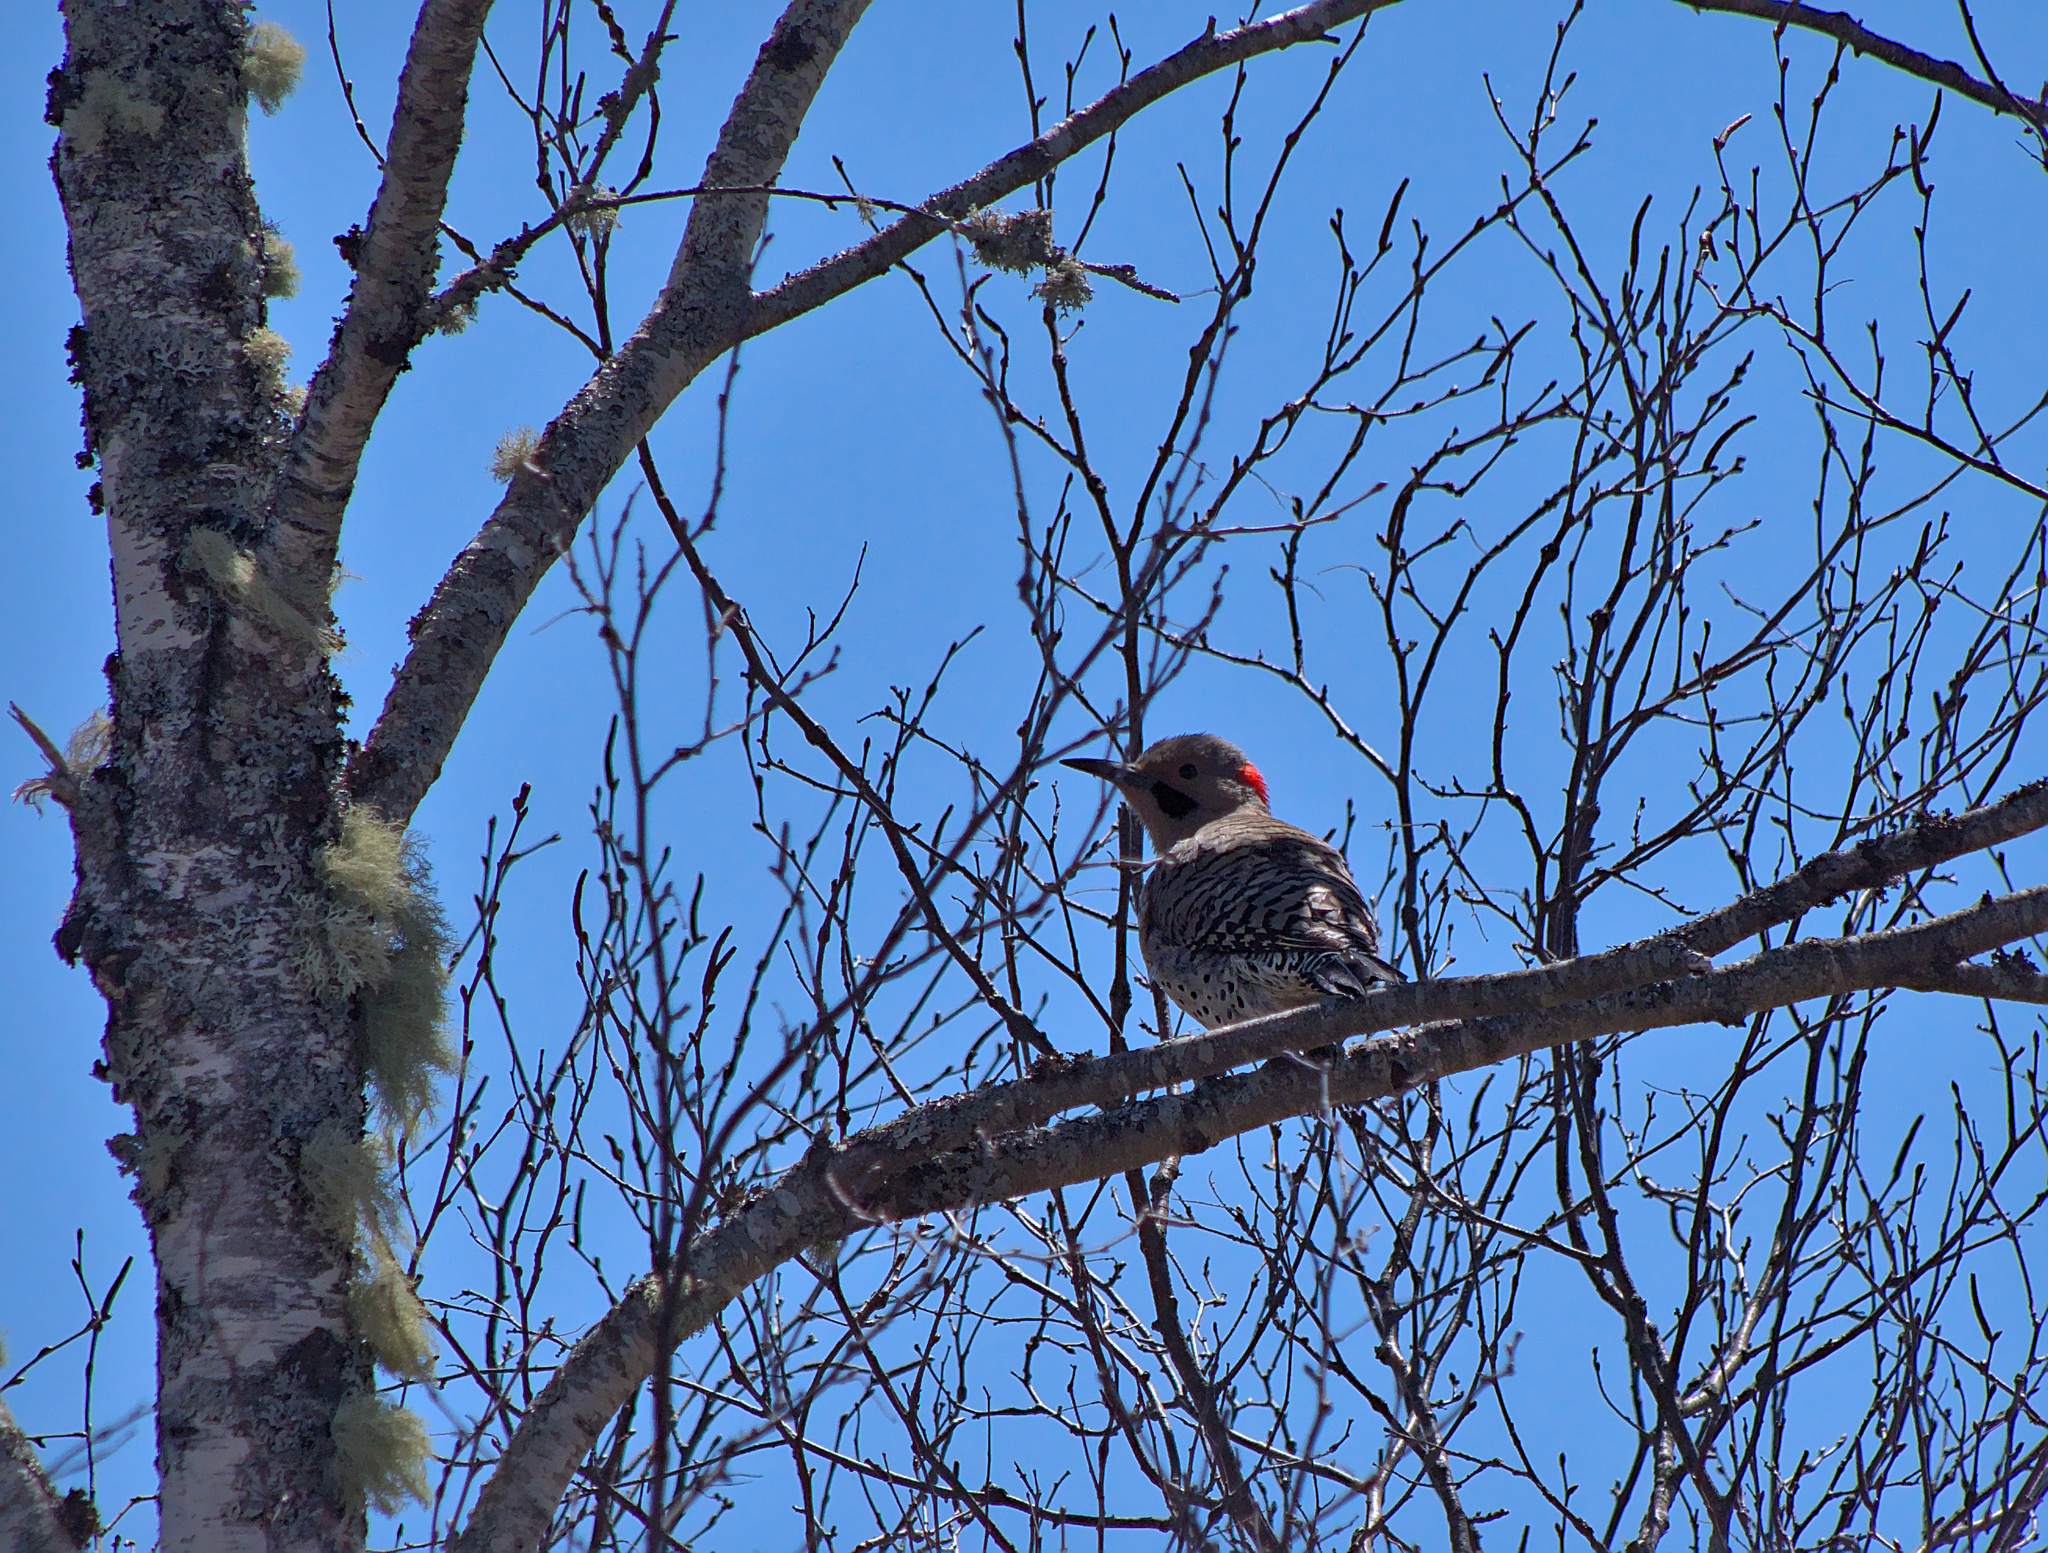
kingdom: Animalia
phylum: Chordata
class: Aves
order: Piciformes
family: Picidae
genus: Colaptes
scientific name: Colaptes auratus
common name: Northern flicker
